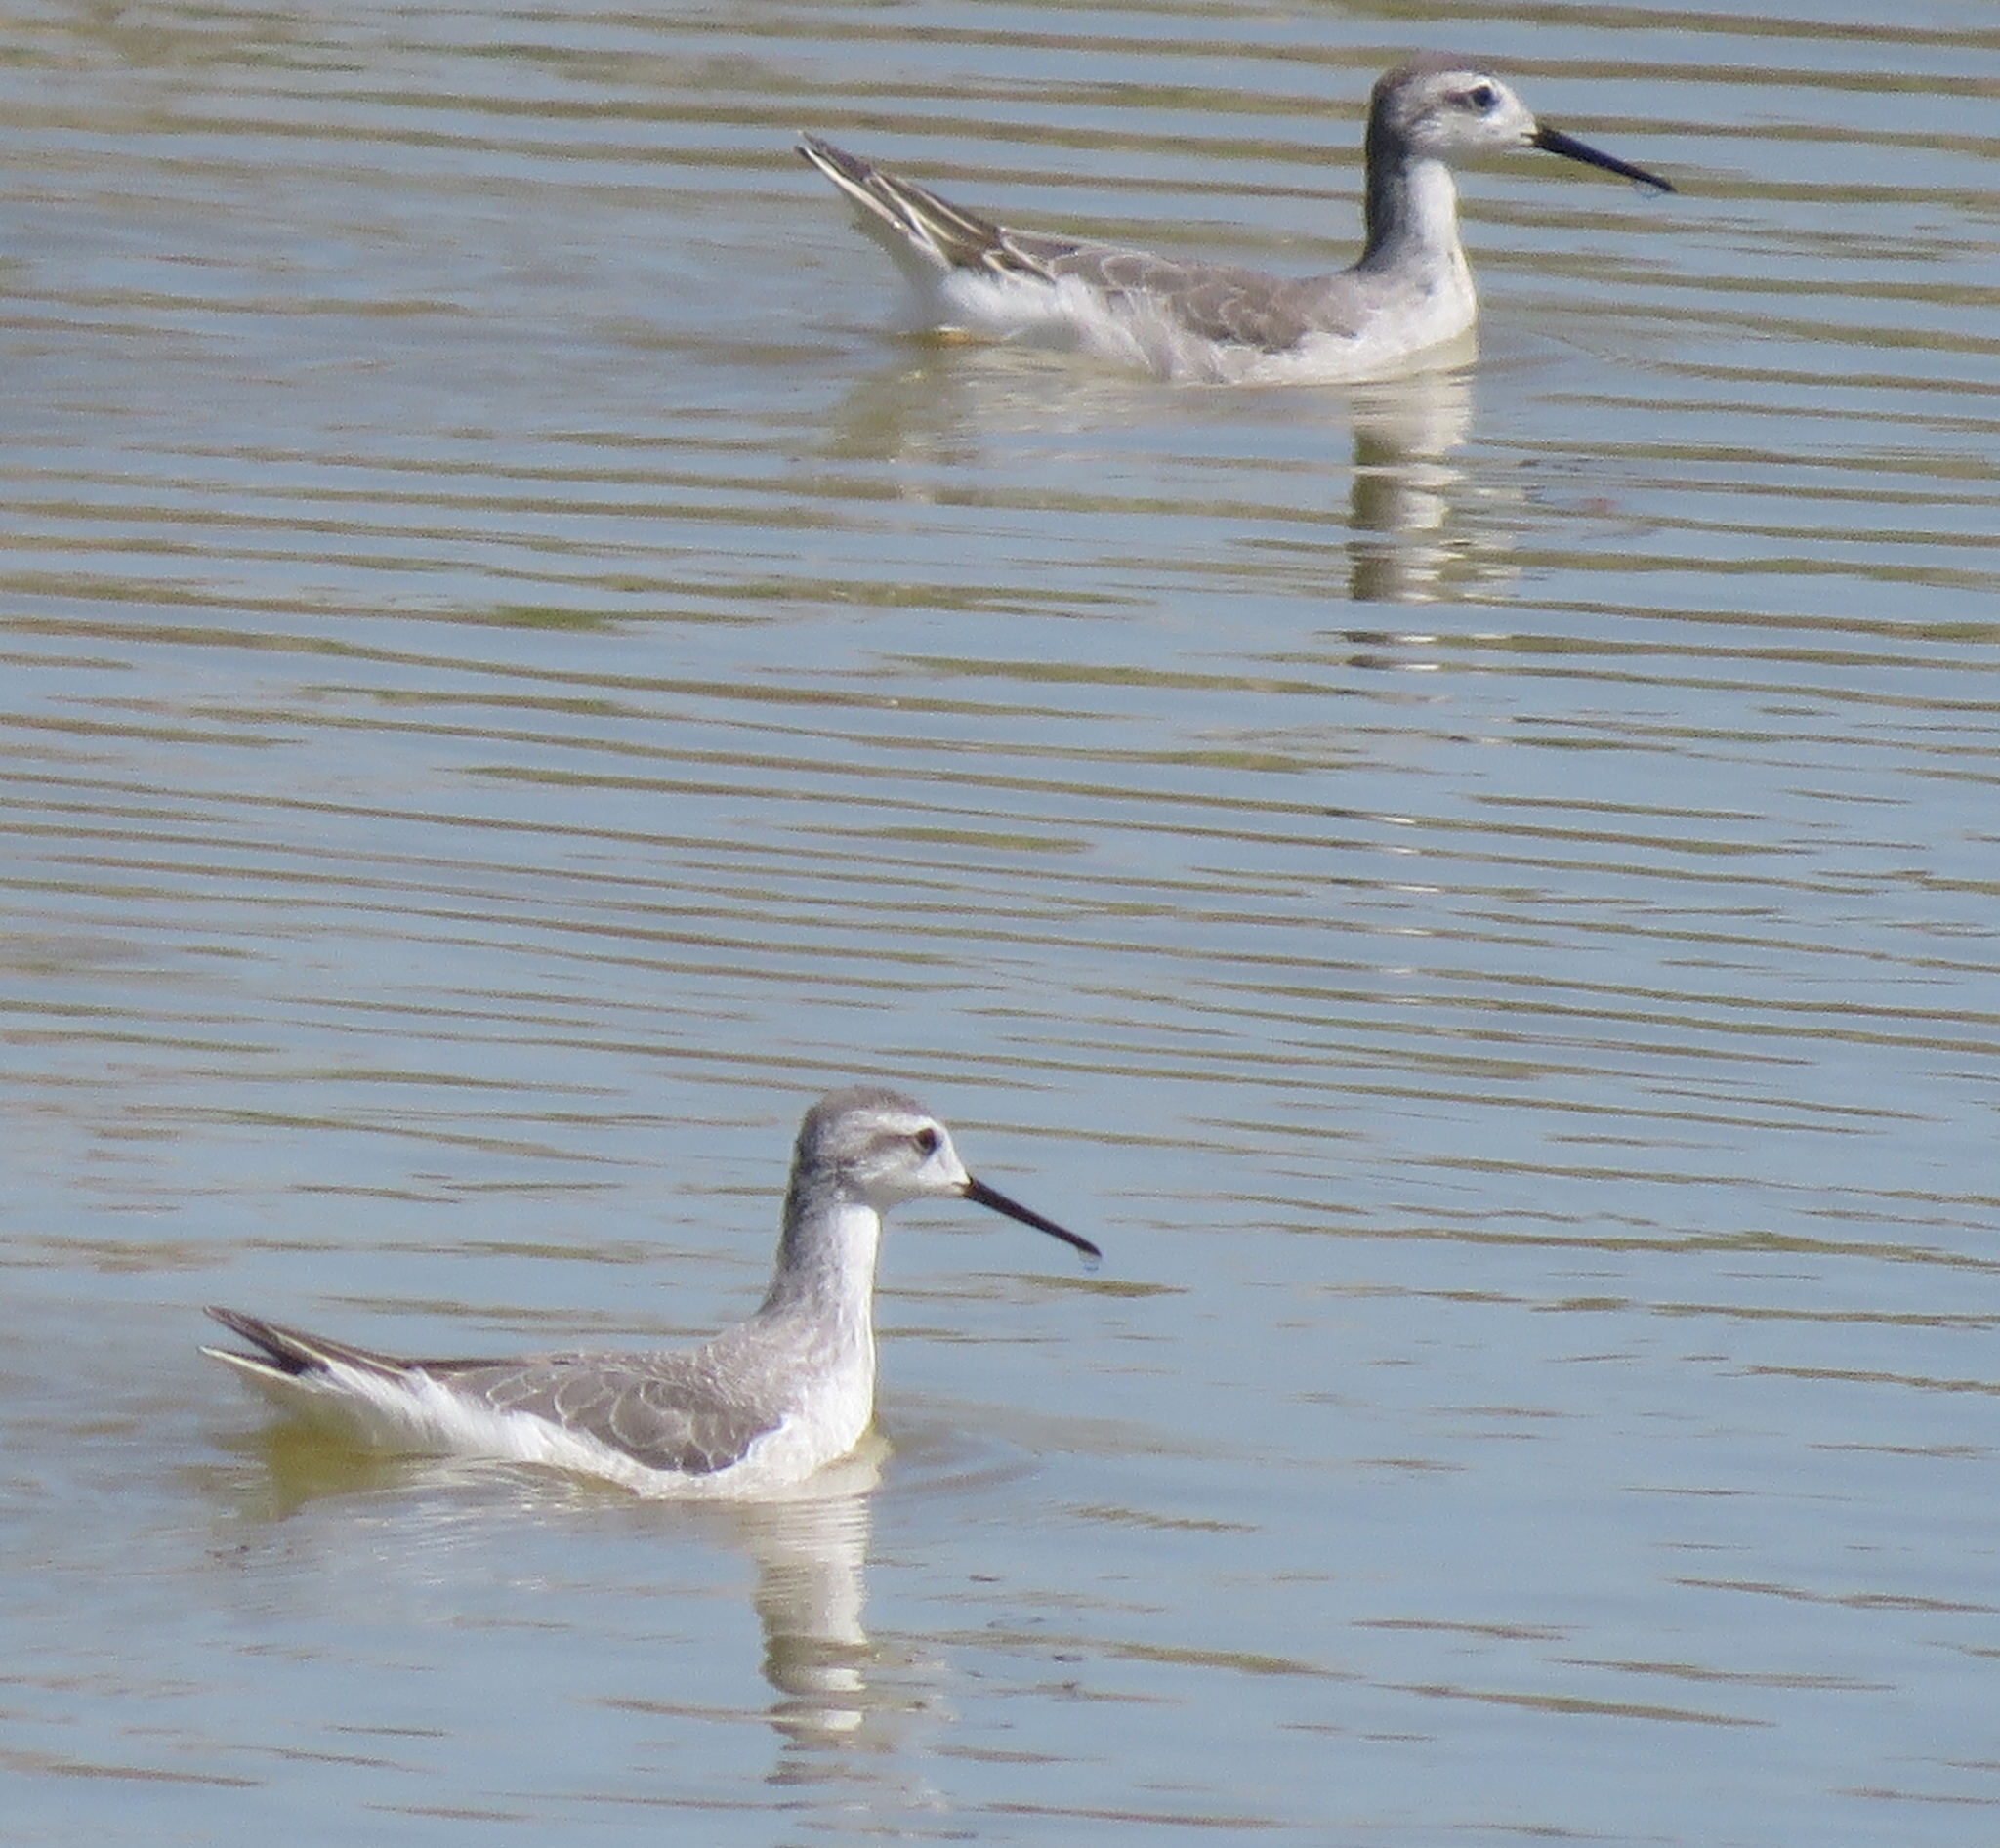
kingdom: Animalia
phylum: Chordata
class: Aves
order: Charadriiformes
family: Scolopacidae
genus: Phalaropus
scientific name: Phalaropus tricolor
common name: Wilson's phalarope
